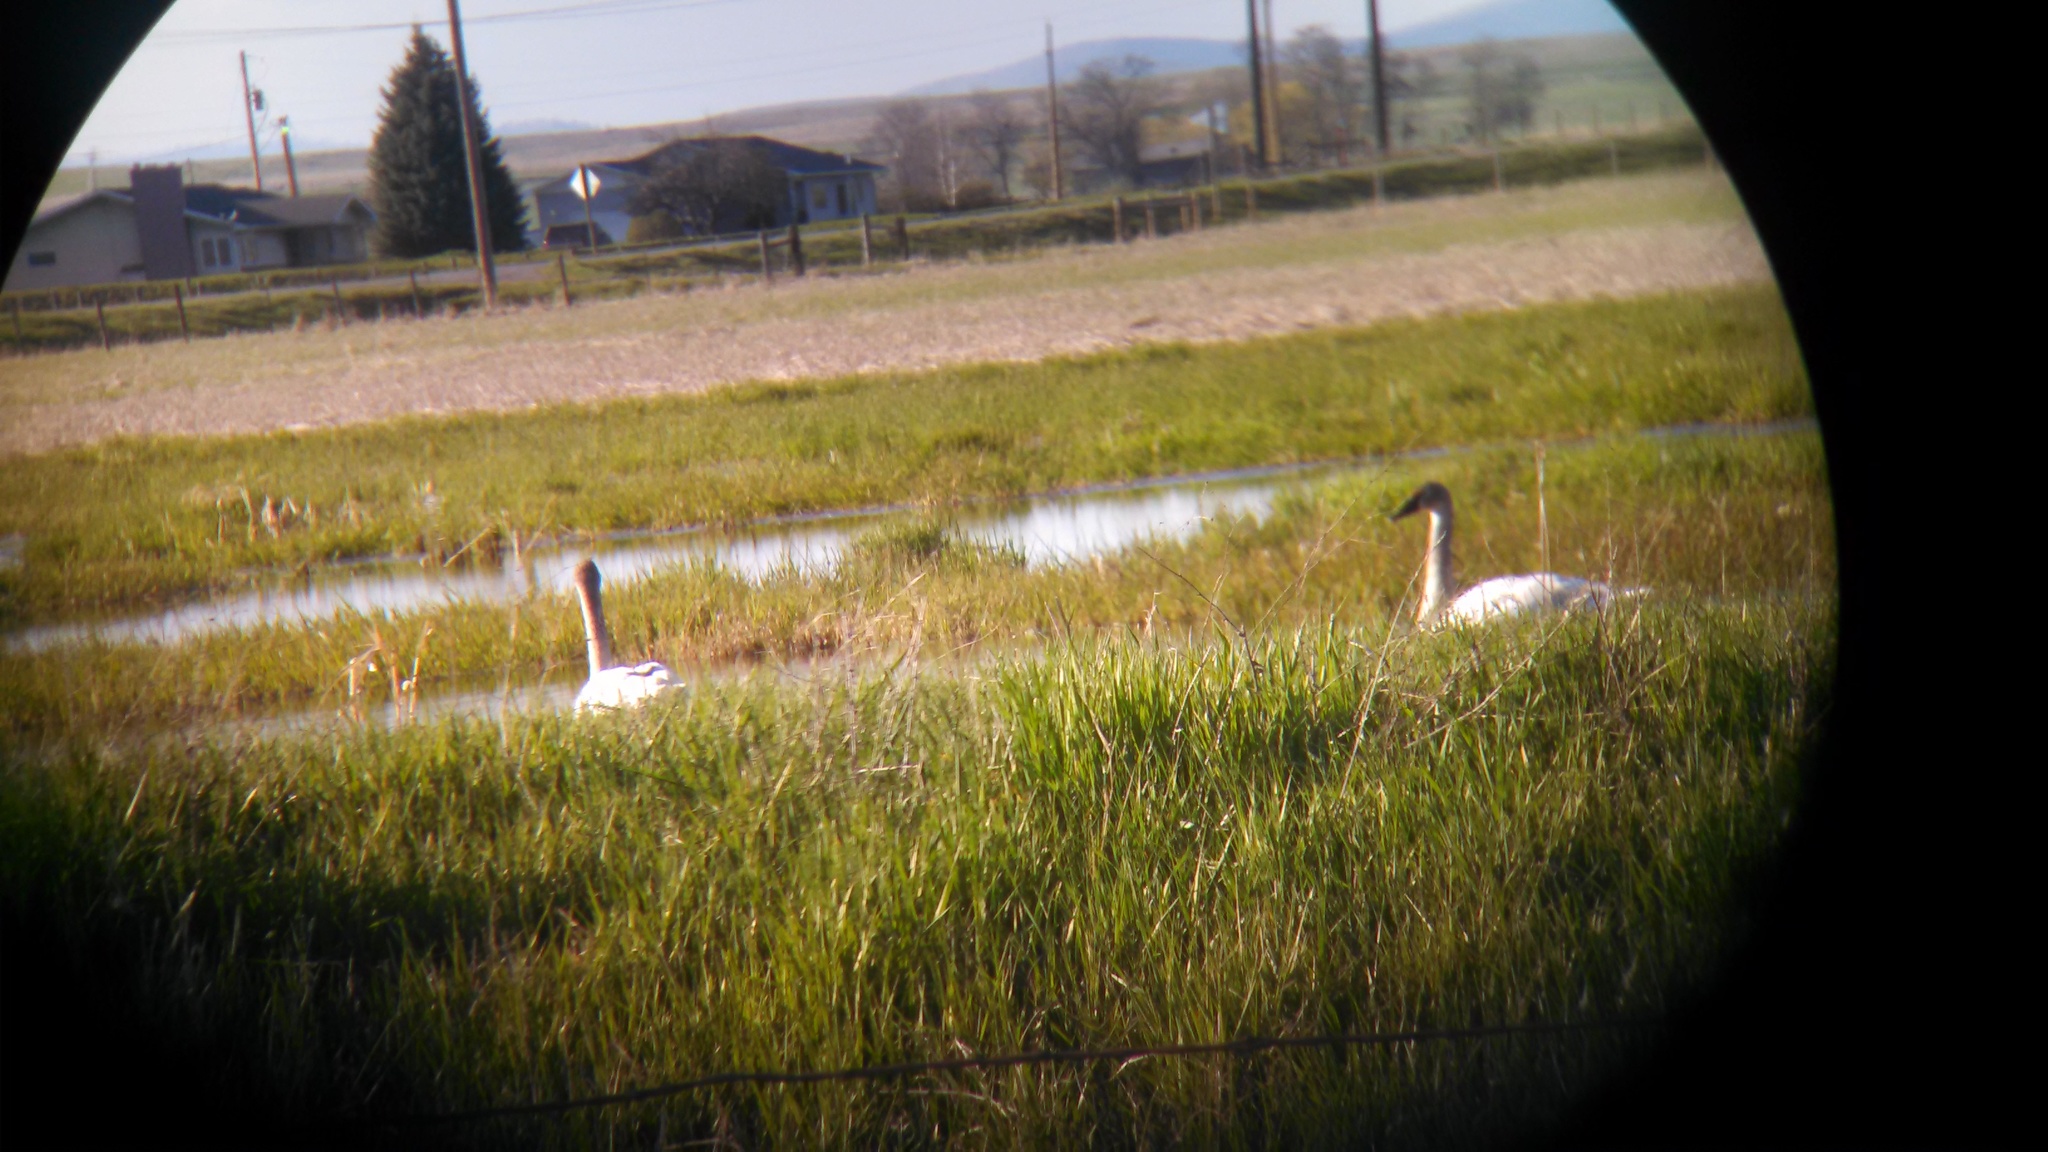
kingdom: Animalia
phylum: Chordata
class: Aves
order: Anseriformes
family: Anatidae
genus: Cygnus
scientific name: Cygnus buccinator
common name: Trumpeter swan
